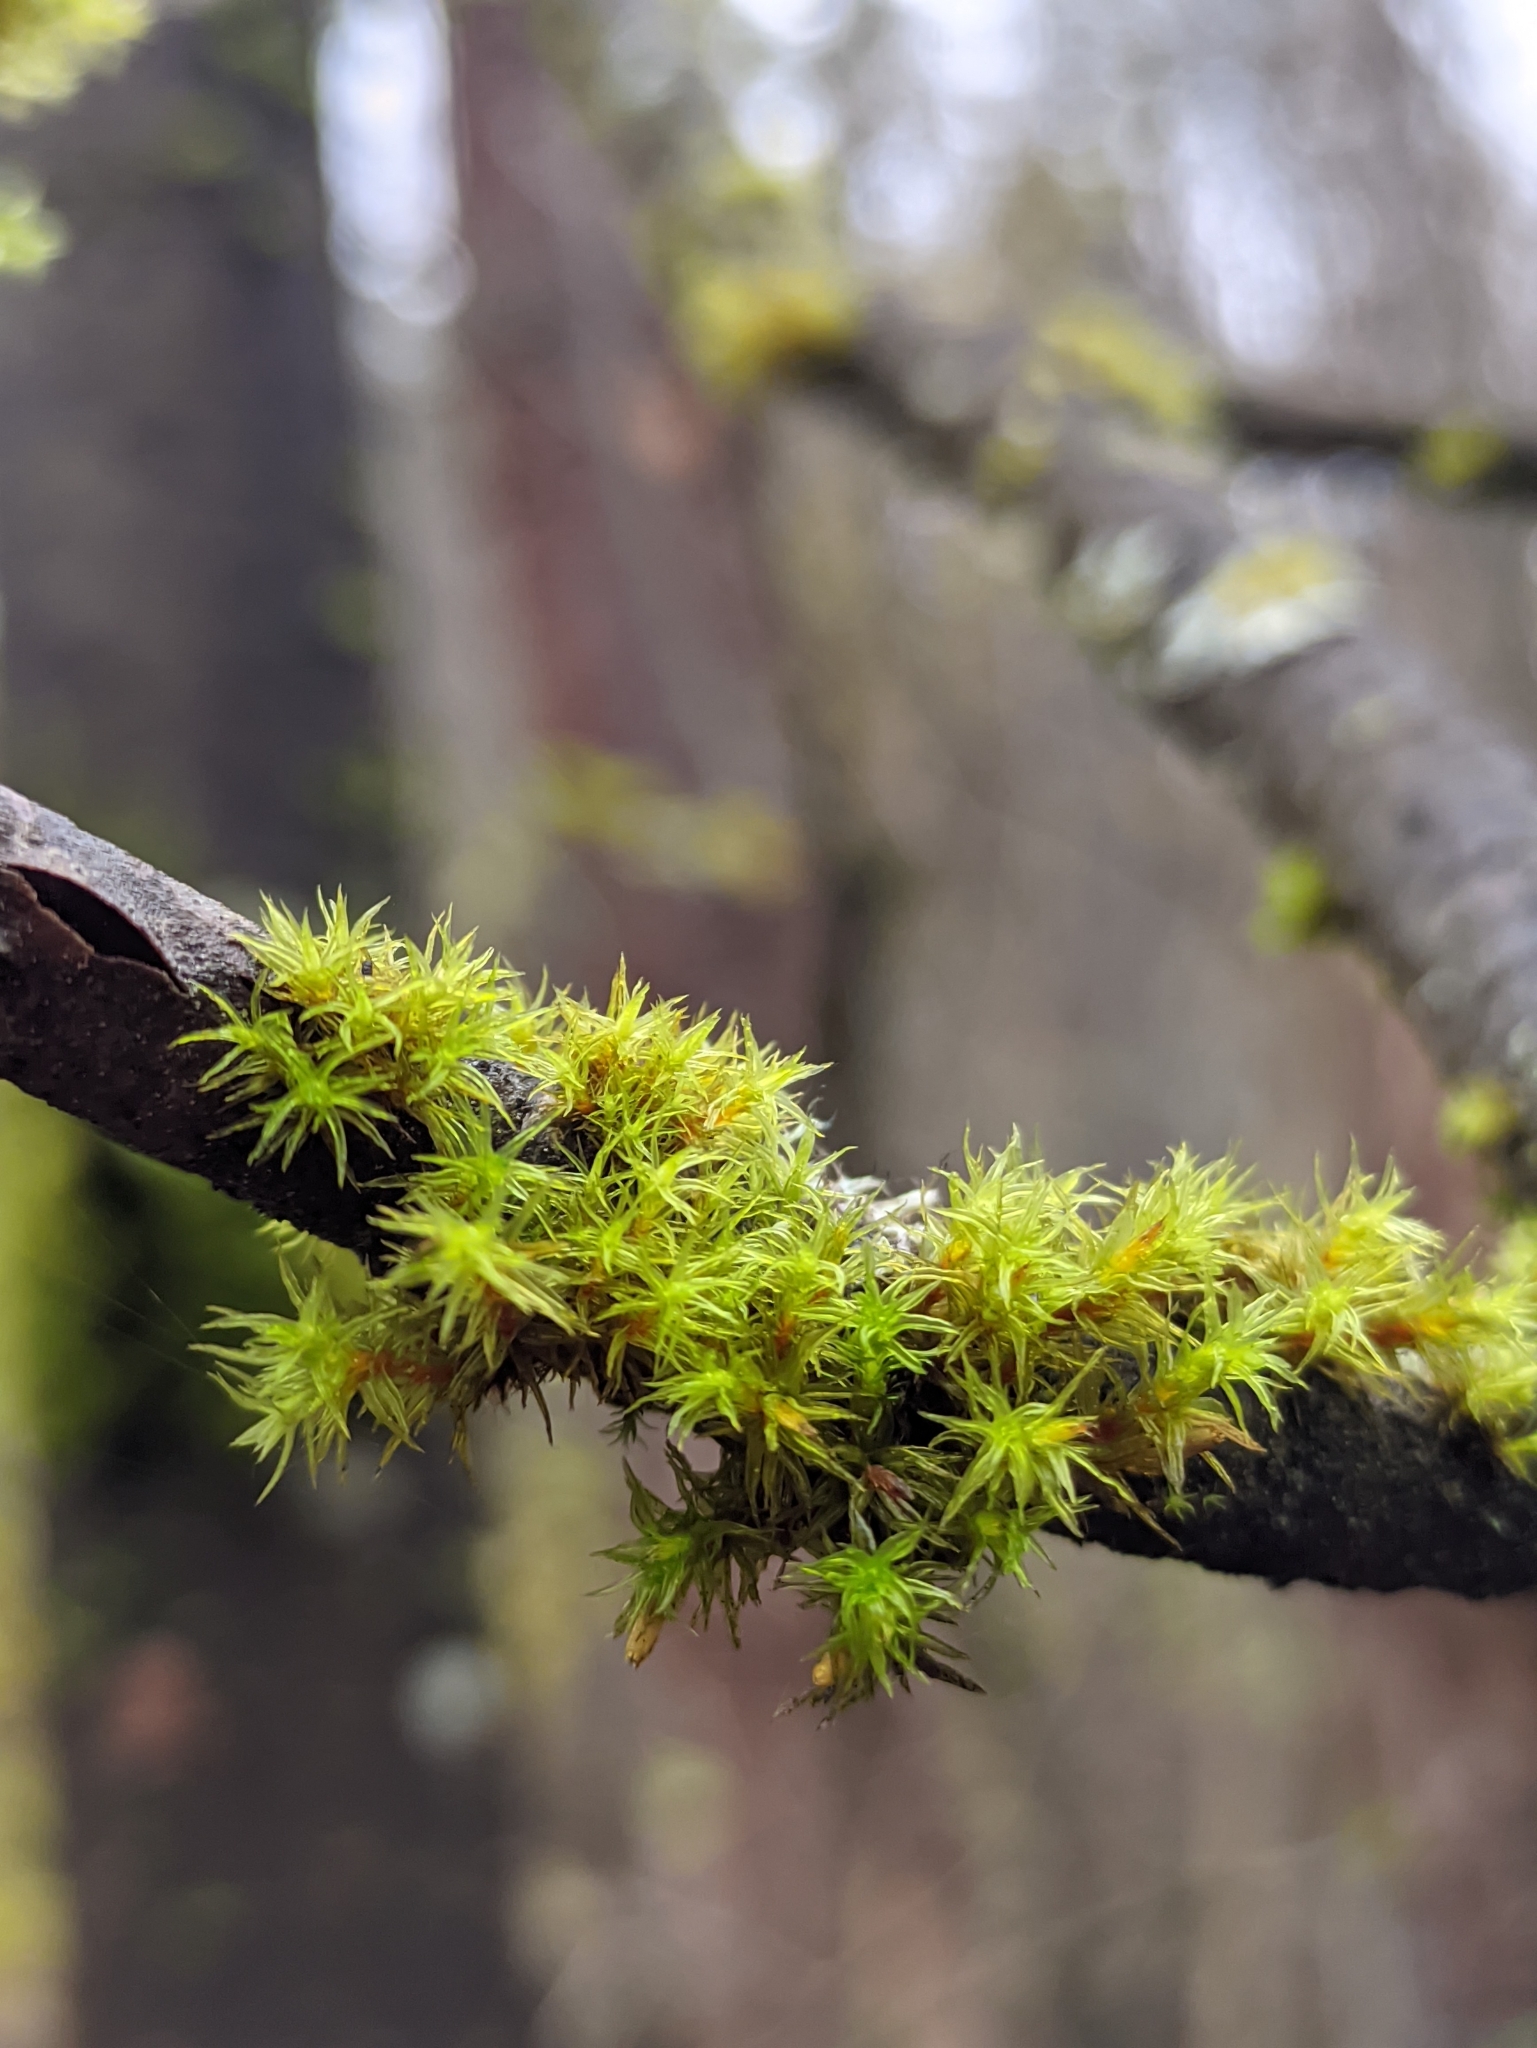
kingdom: Plantae
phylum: Bryophyta
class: Bryopsida
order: Orthotrichales
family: Orthotrichaceae
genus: Lewinskya
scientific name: Lewinskya speciosa
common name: Showy bristle moss
